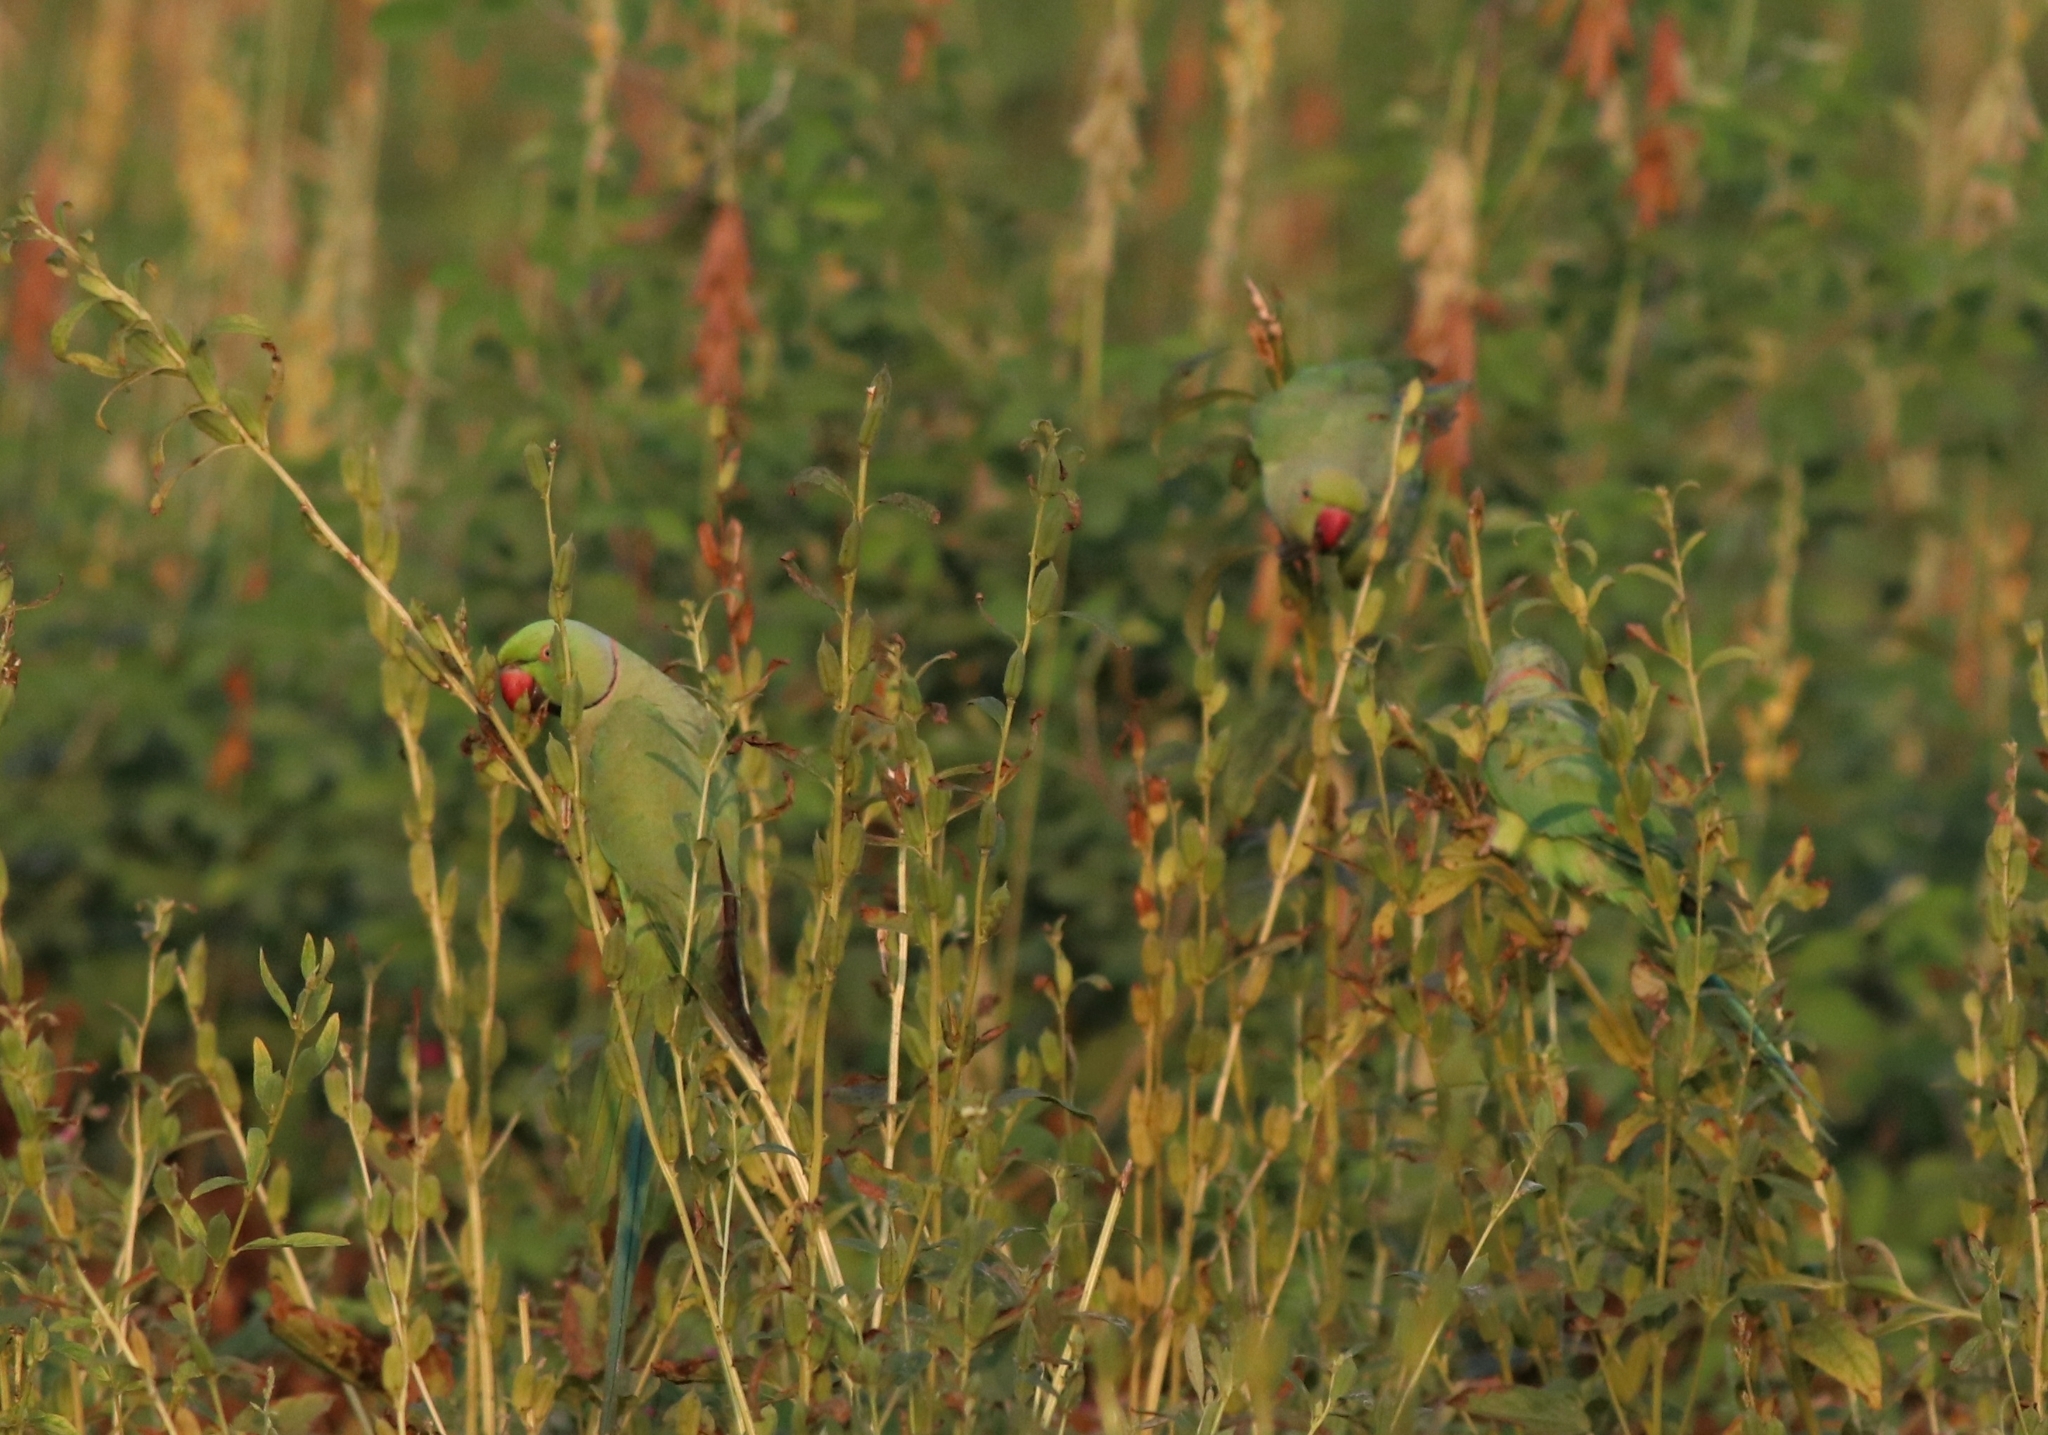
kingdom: Animalia
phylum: Chordata
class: Aves
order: Psittaciformes
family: Psittacidae
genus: Psittacula
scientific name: Psittacula krameri
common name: Rose-ringed parakeet
